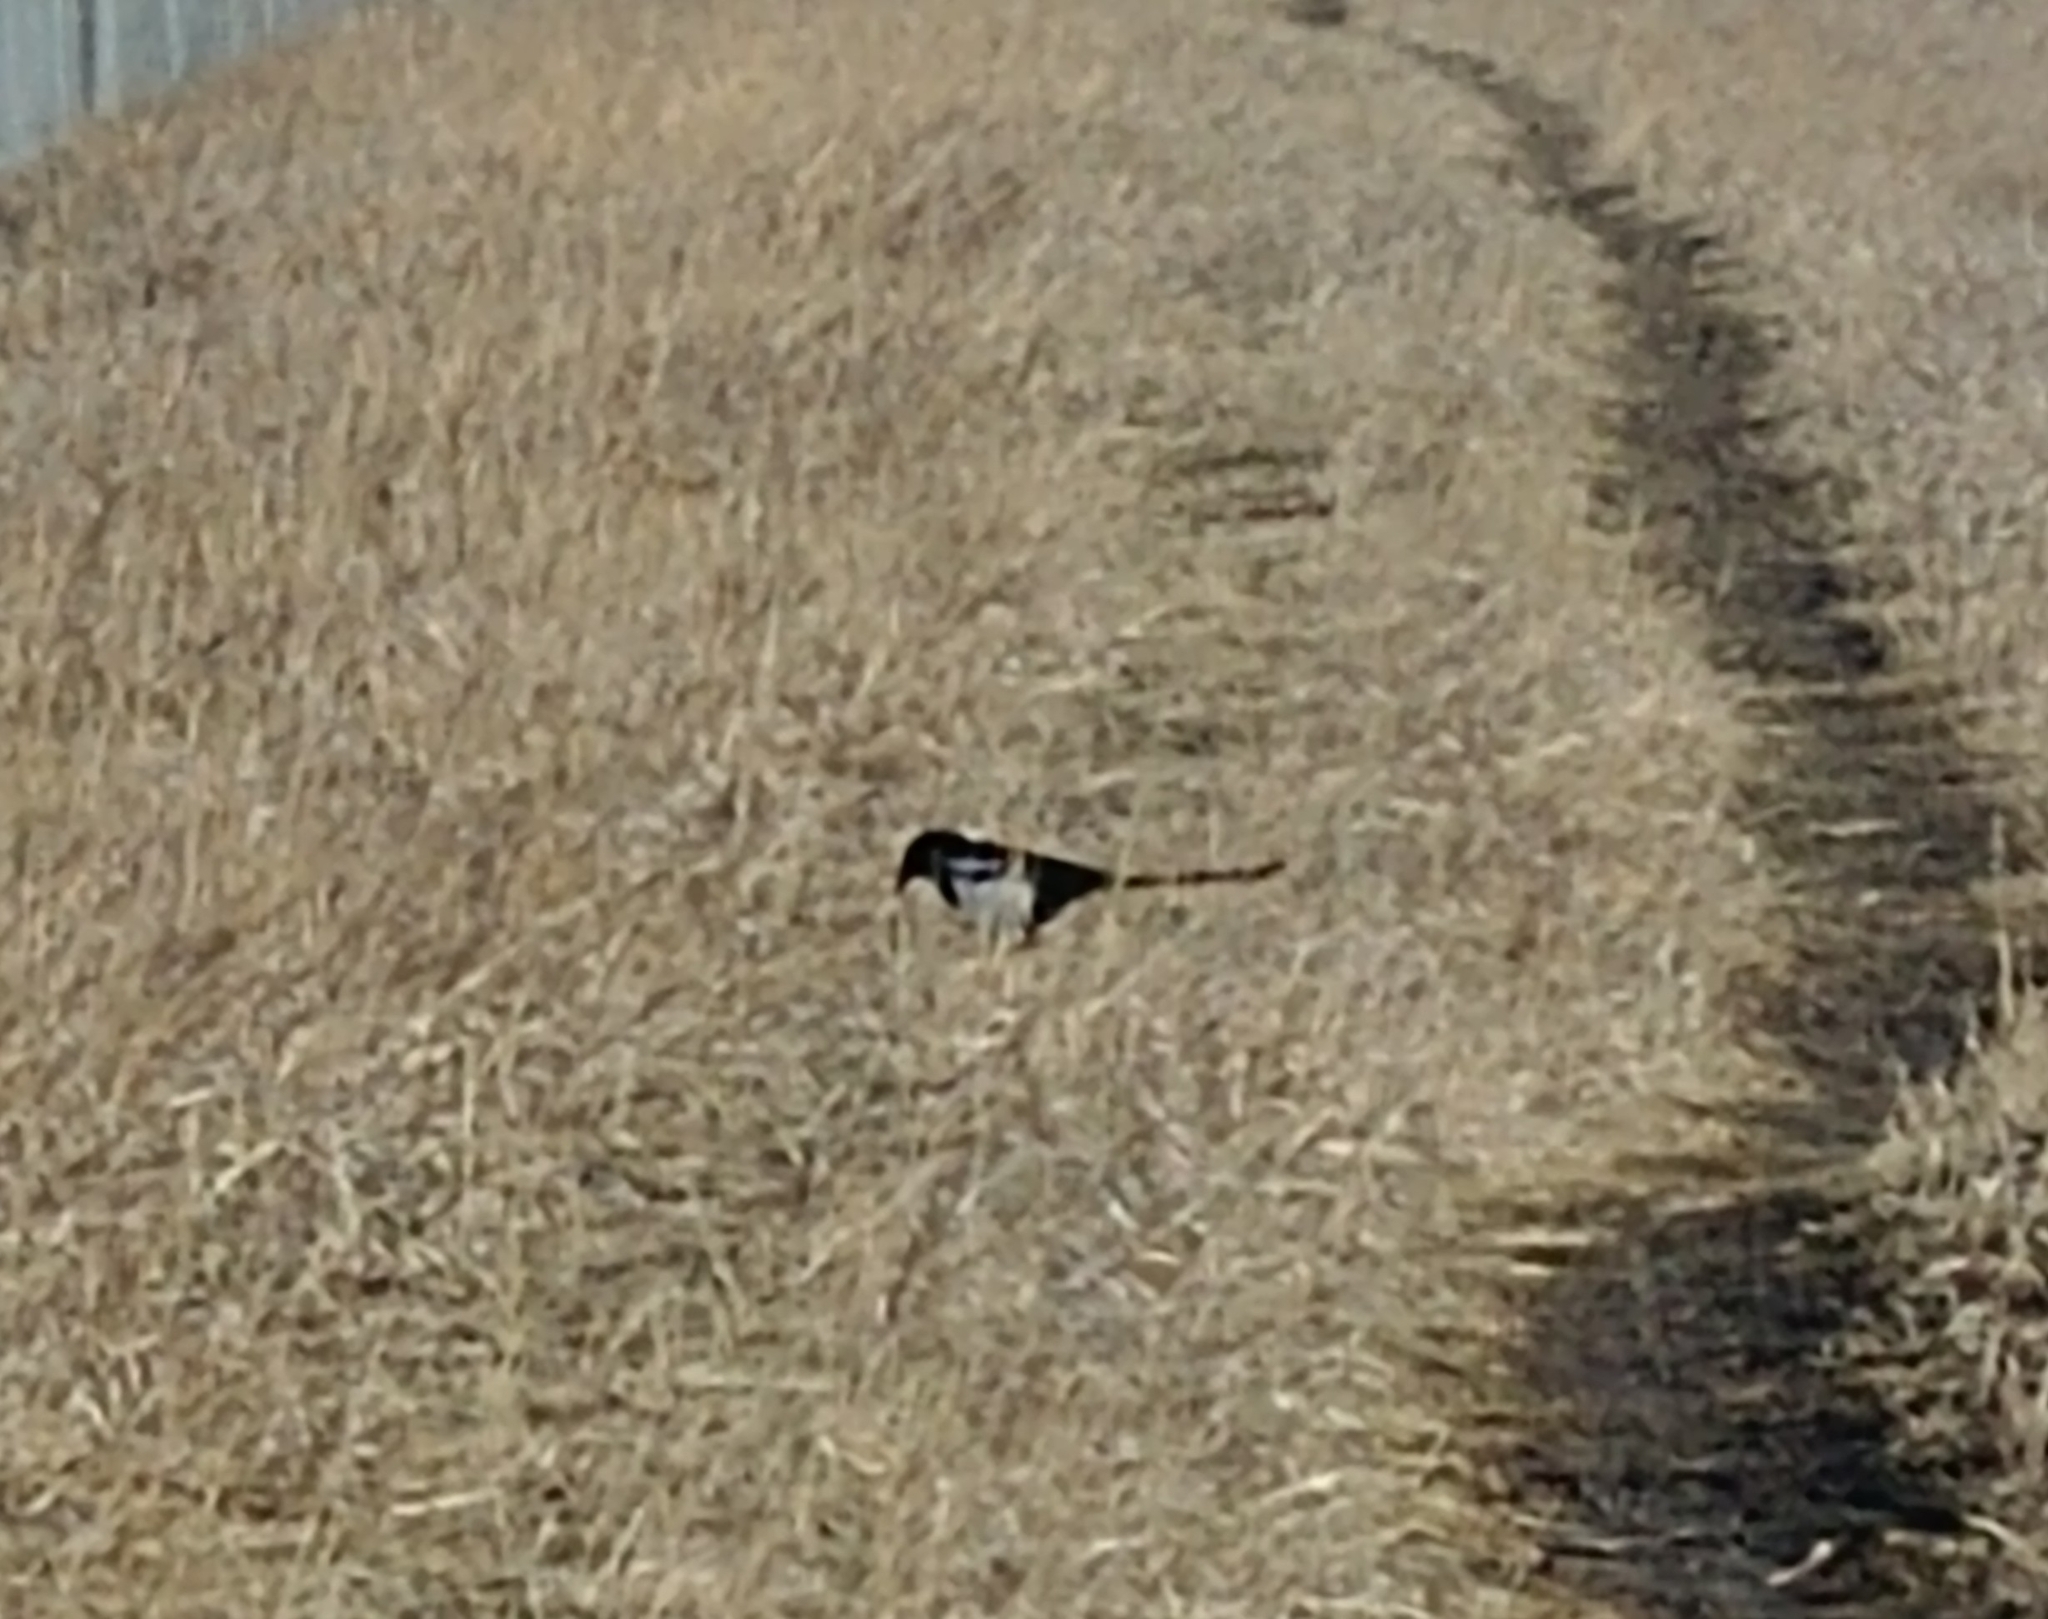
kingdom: Animalia
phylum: Chordata
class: Aves
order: Passeriformes
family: Corvidae
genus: Pica
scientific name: Pica hudsonia
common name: Black-billed magpie
